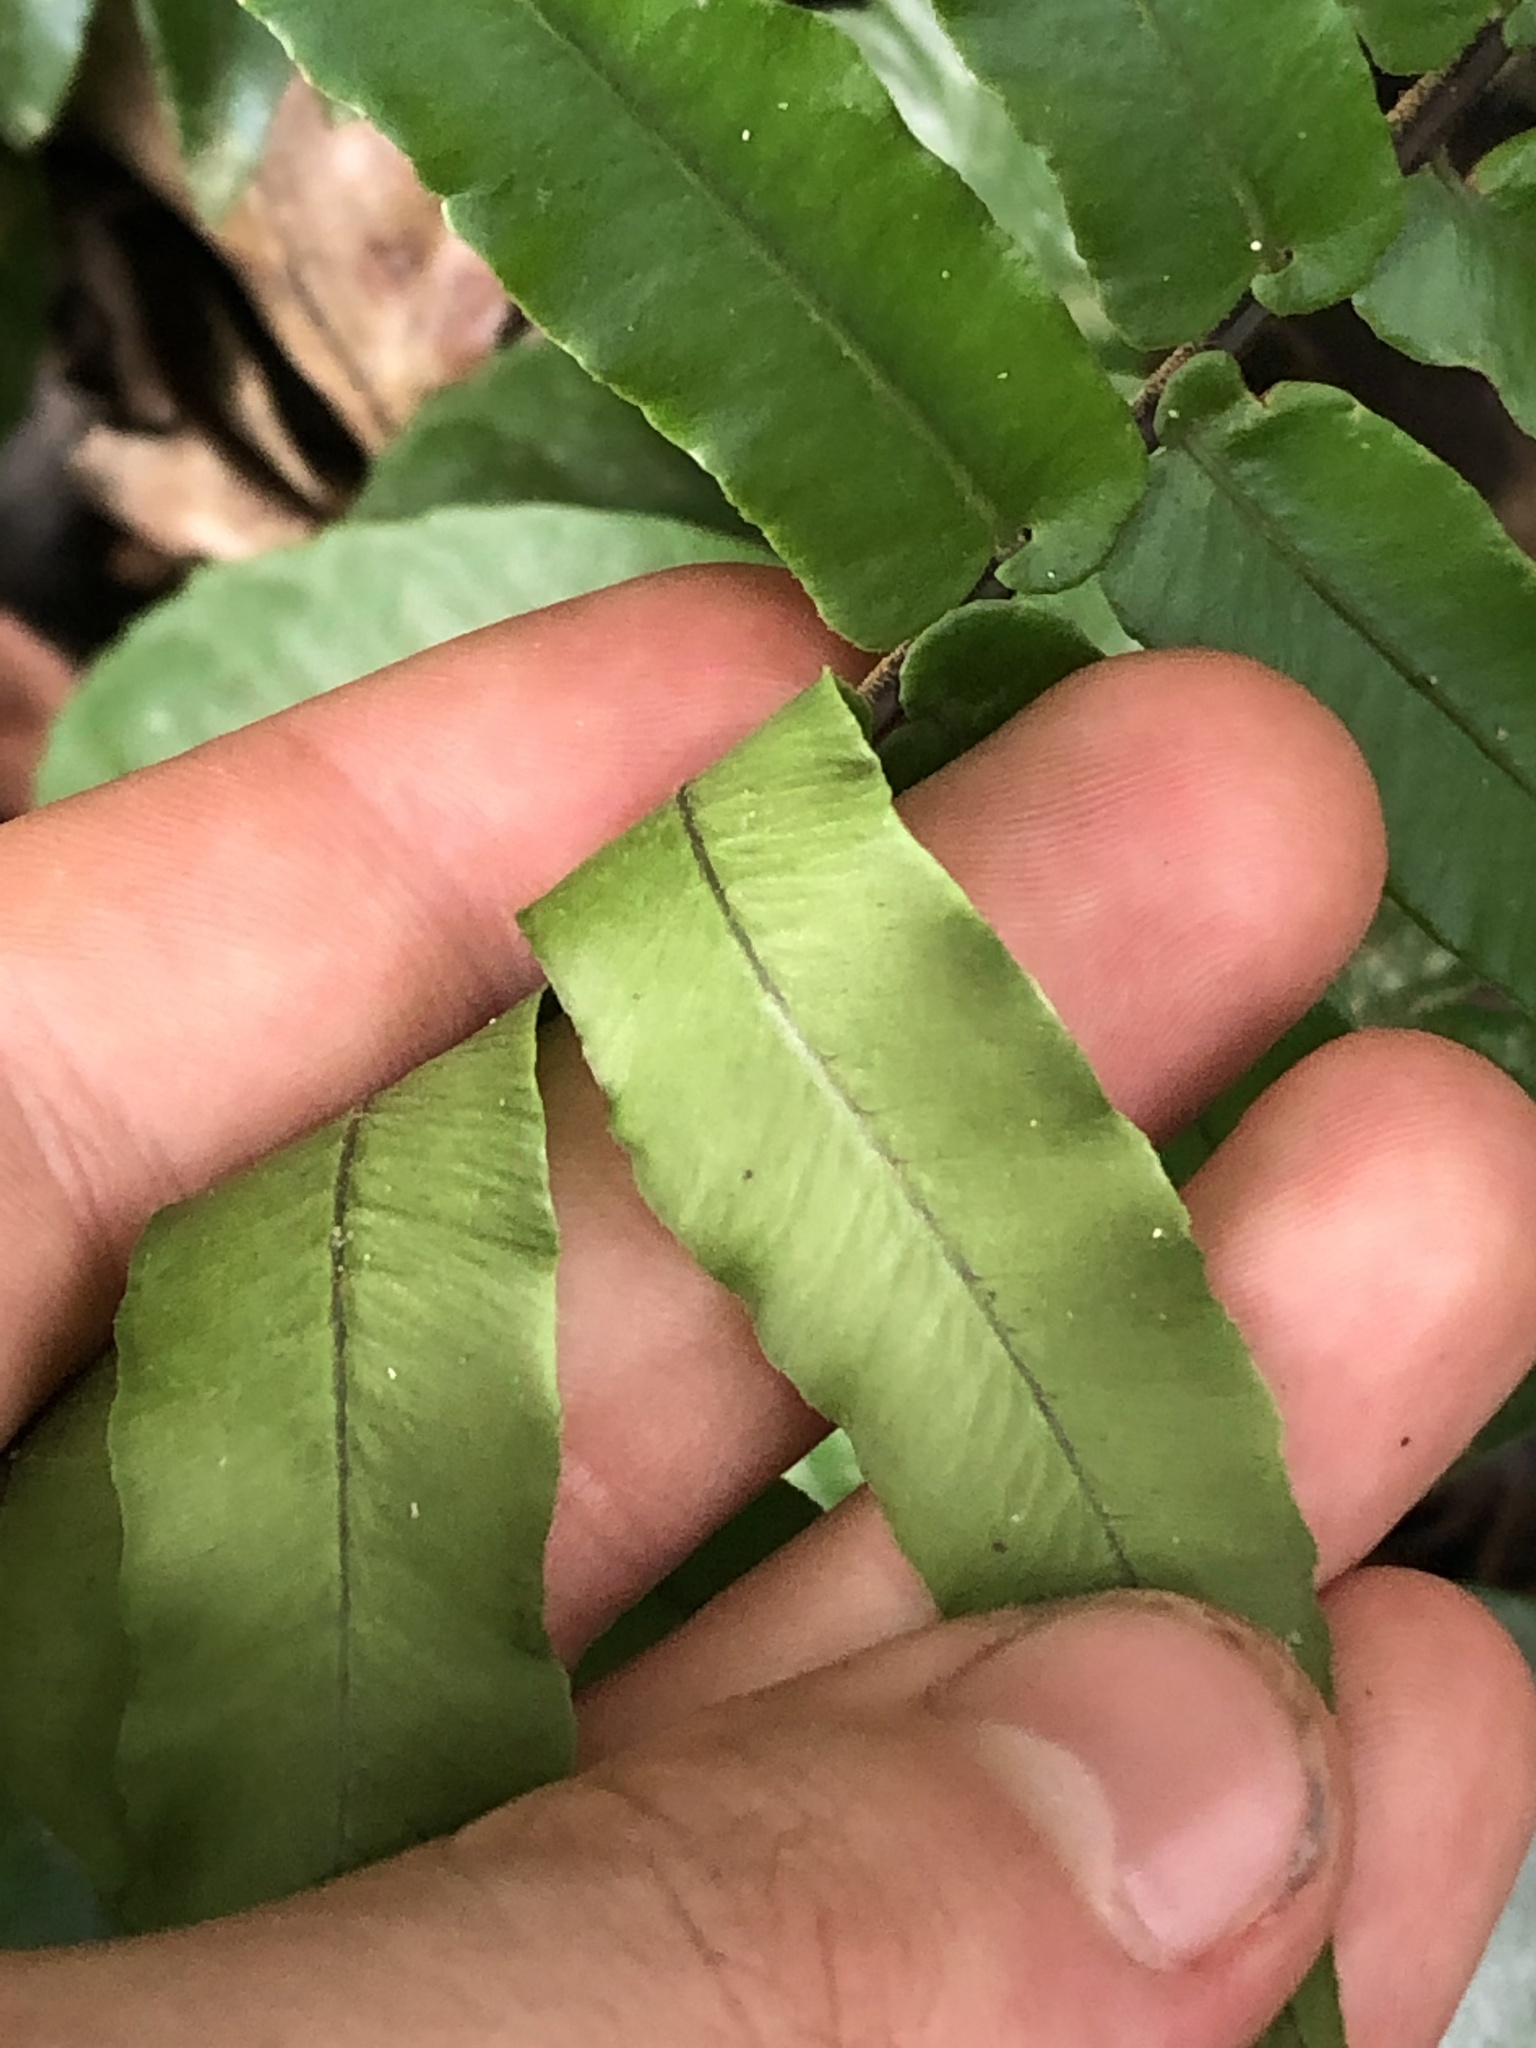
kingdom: Plantae
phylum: Tracheophyta
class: Polypodiopsida
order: Polypodiales
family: Lomariopsidaceae
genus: Cyclopeltis
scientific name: Cyclopeltis semicordata
